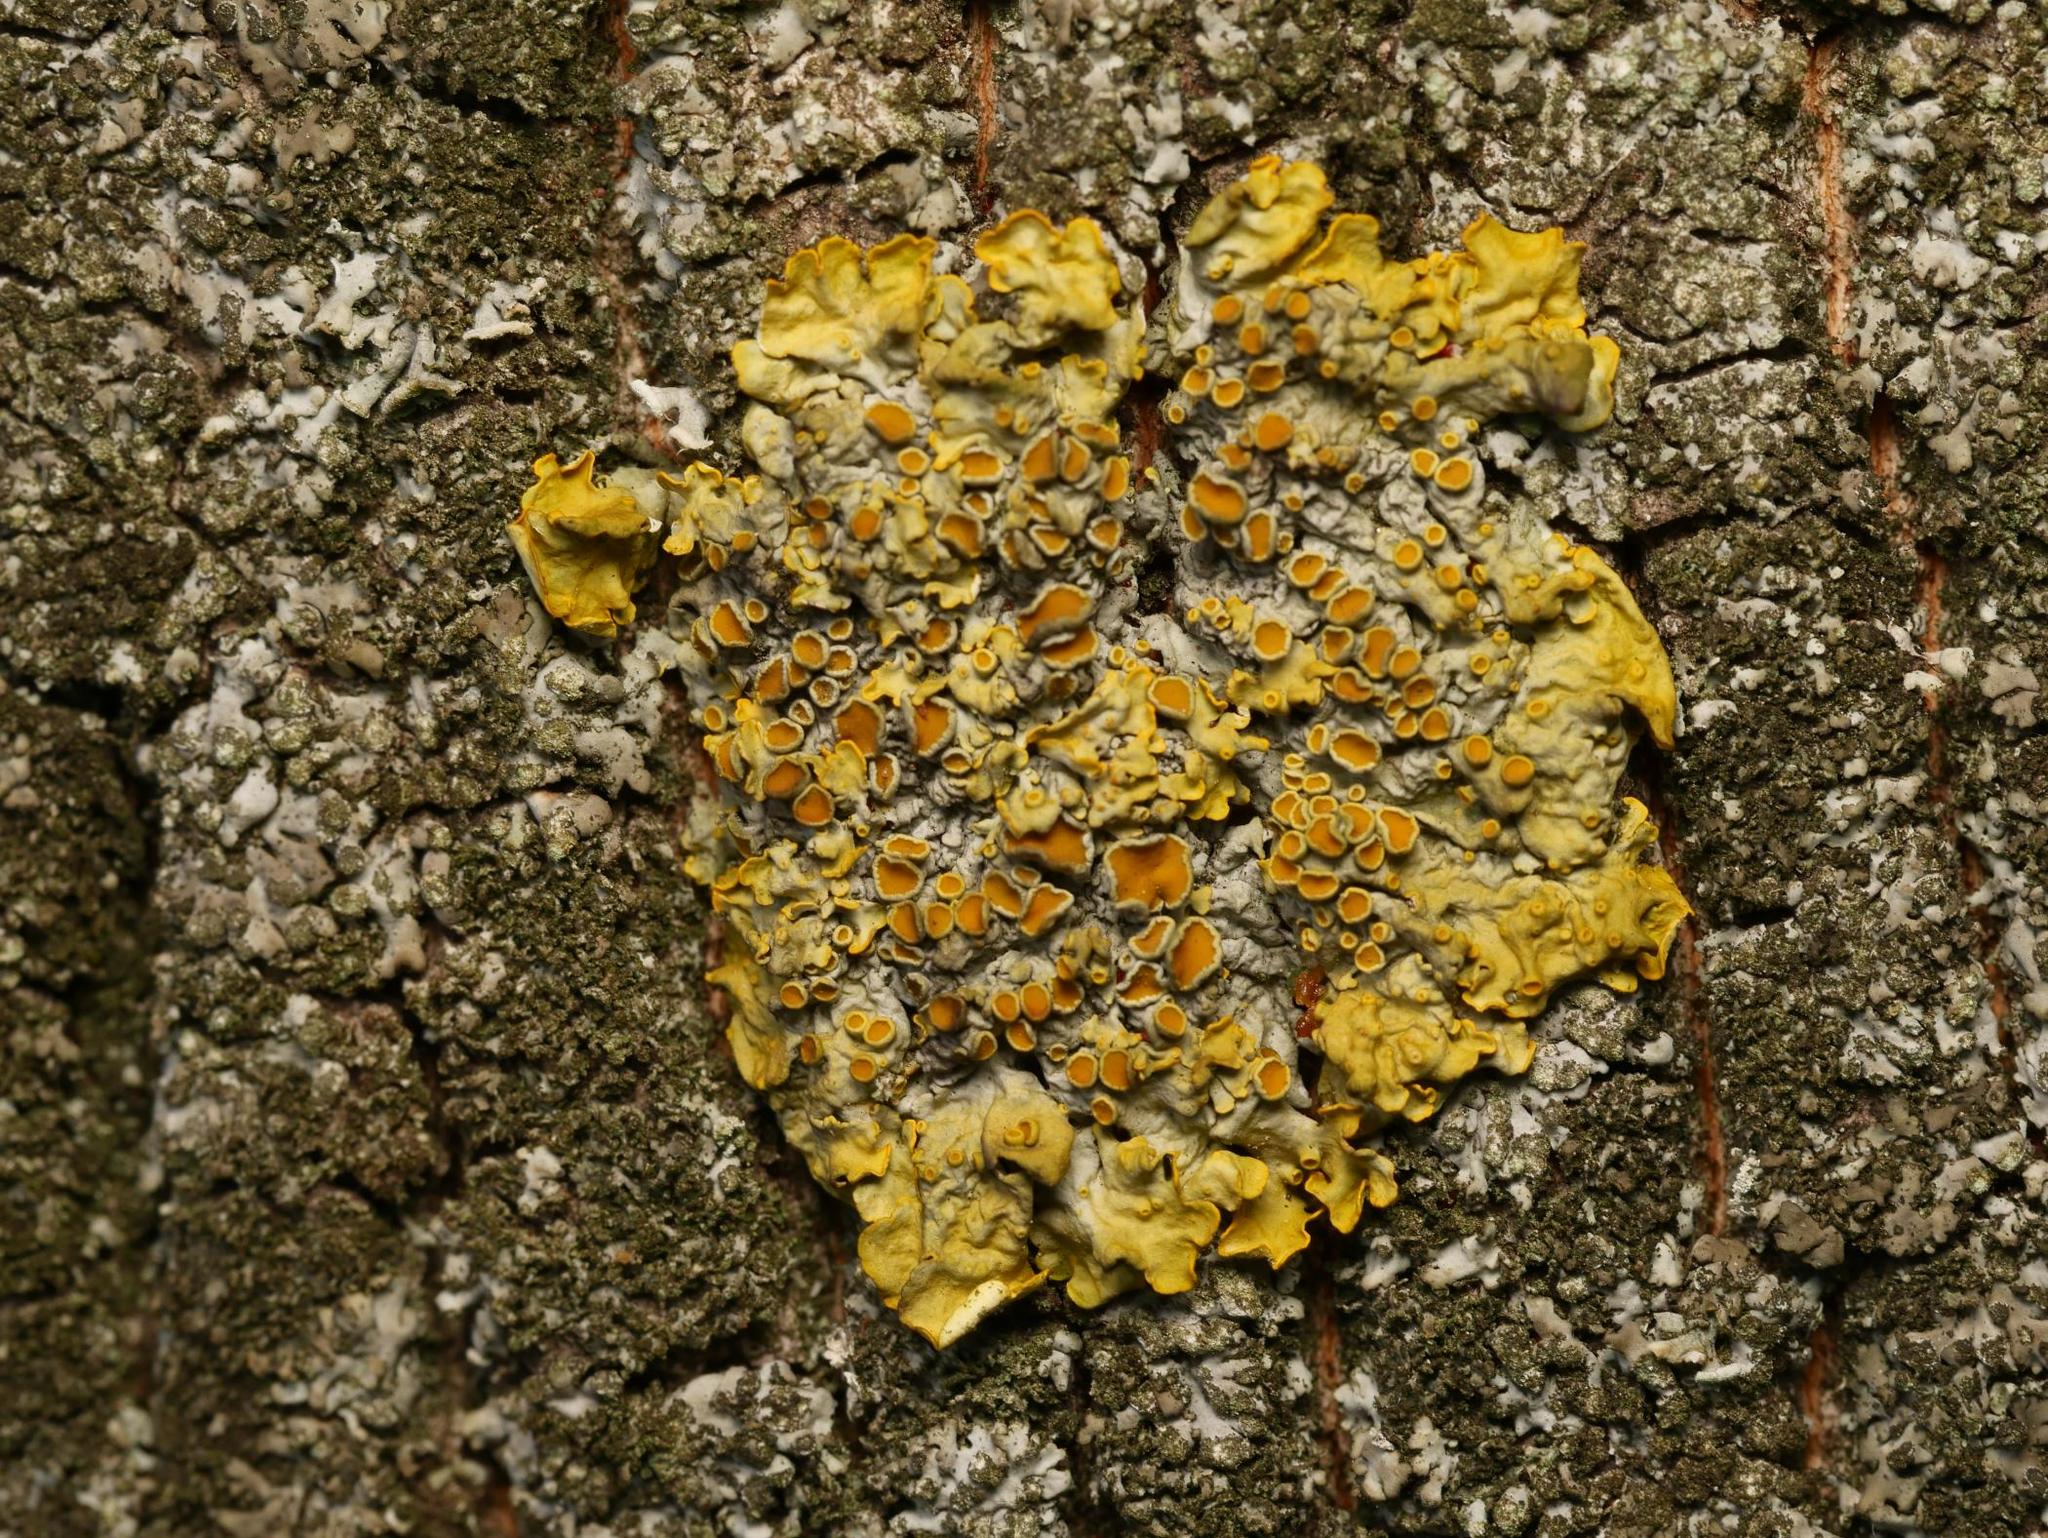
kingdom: Fungi
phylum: Ascomycota
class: Lecanoromycetes
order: Teloschistales
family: Teloschistaceae
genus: Xanthoria
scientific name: Xanthoria parietina
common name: Common orange lichen
